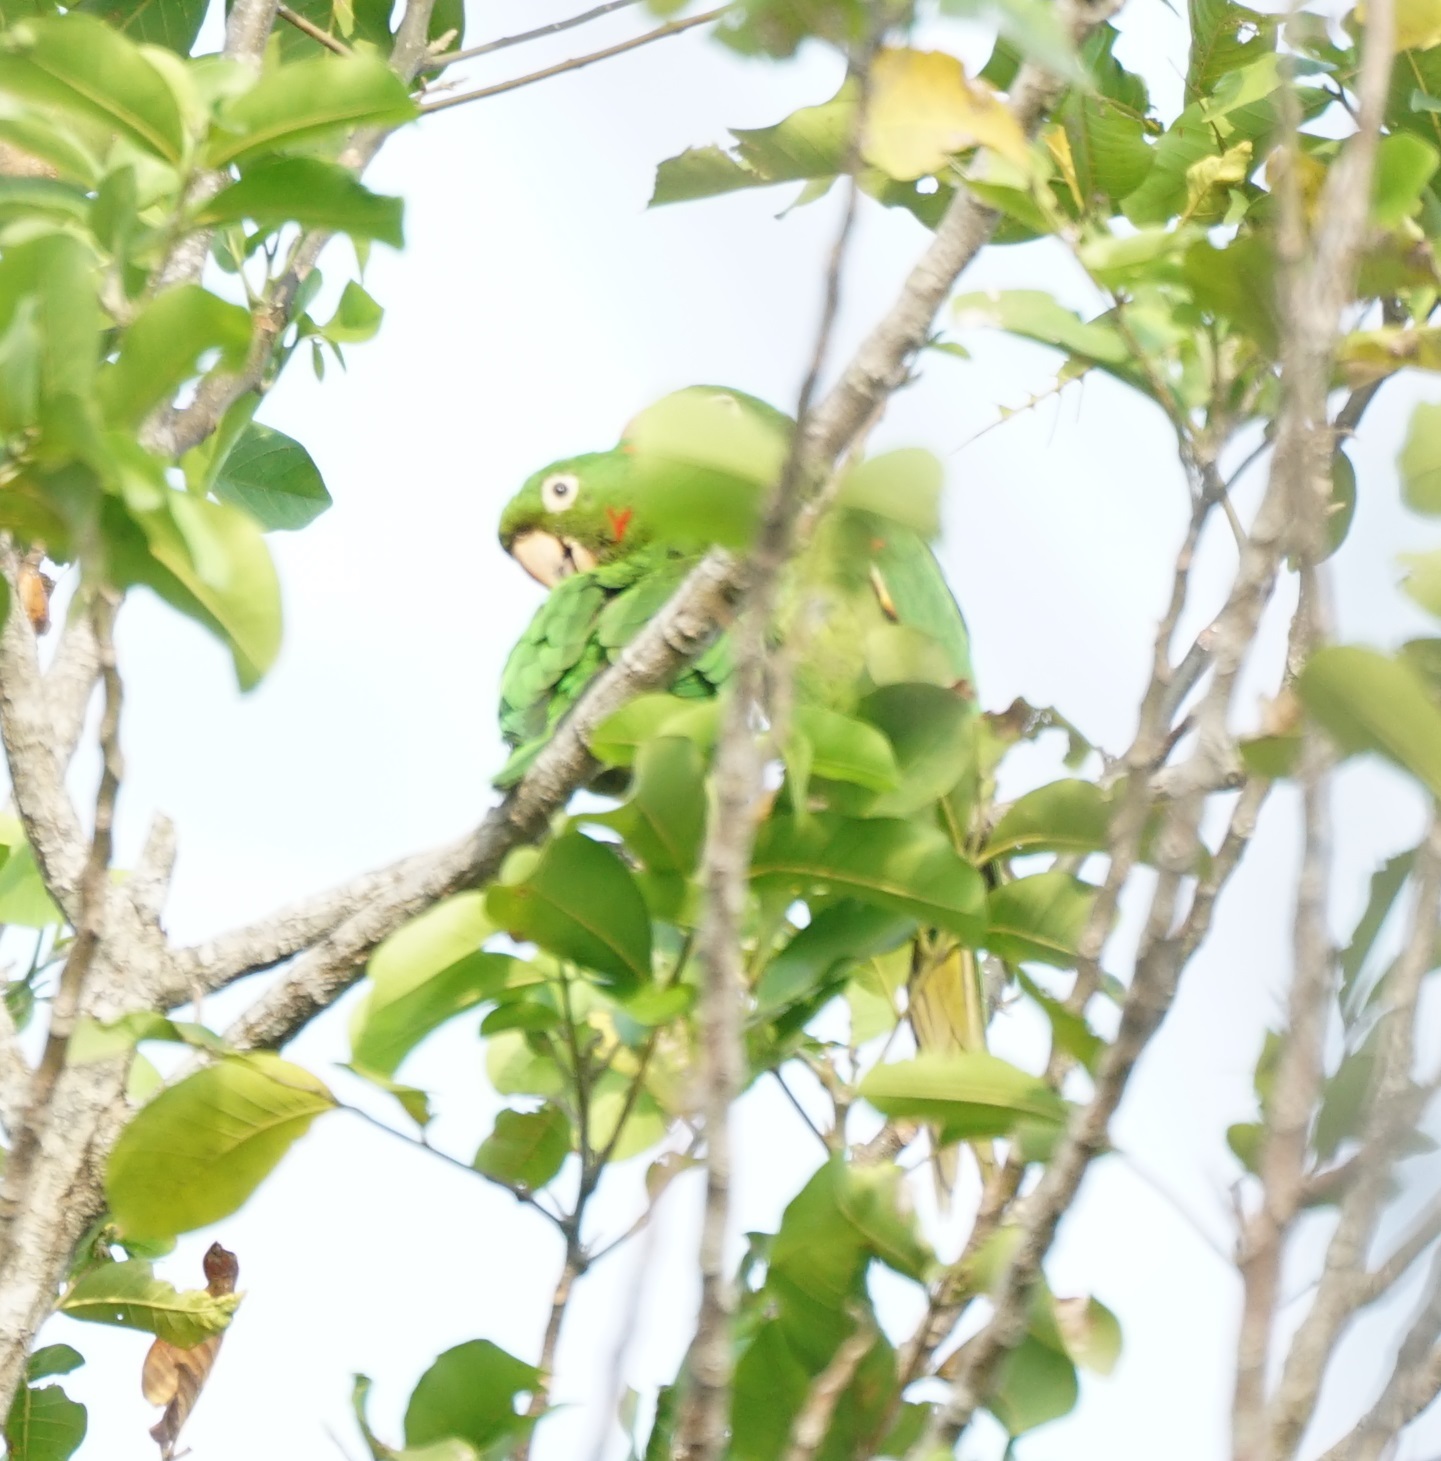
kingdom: Animalia
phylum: Chordata
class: Aves
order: Psittaciformes
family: Psittacidae
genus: Aratinga
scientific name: Aratinga leucophthalma
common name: White-eyed parakeet
